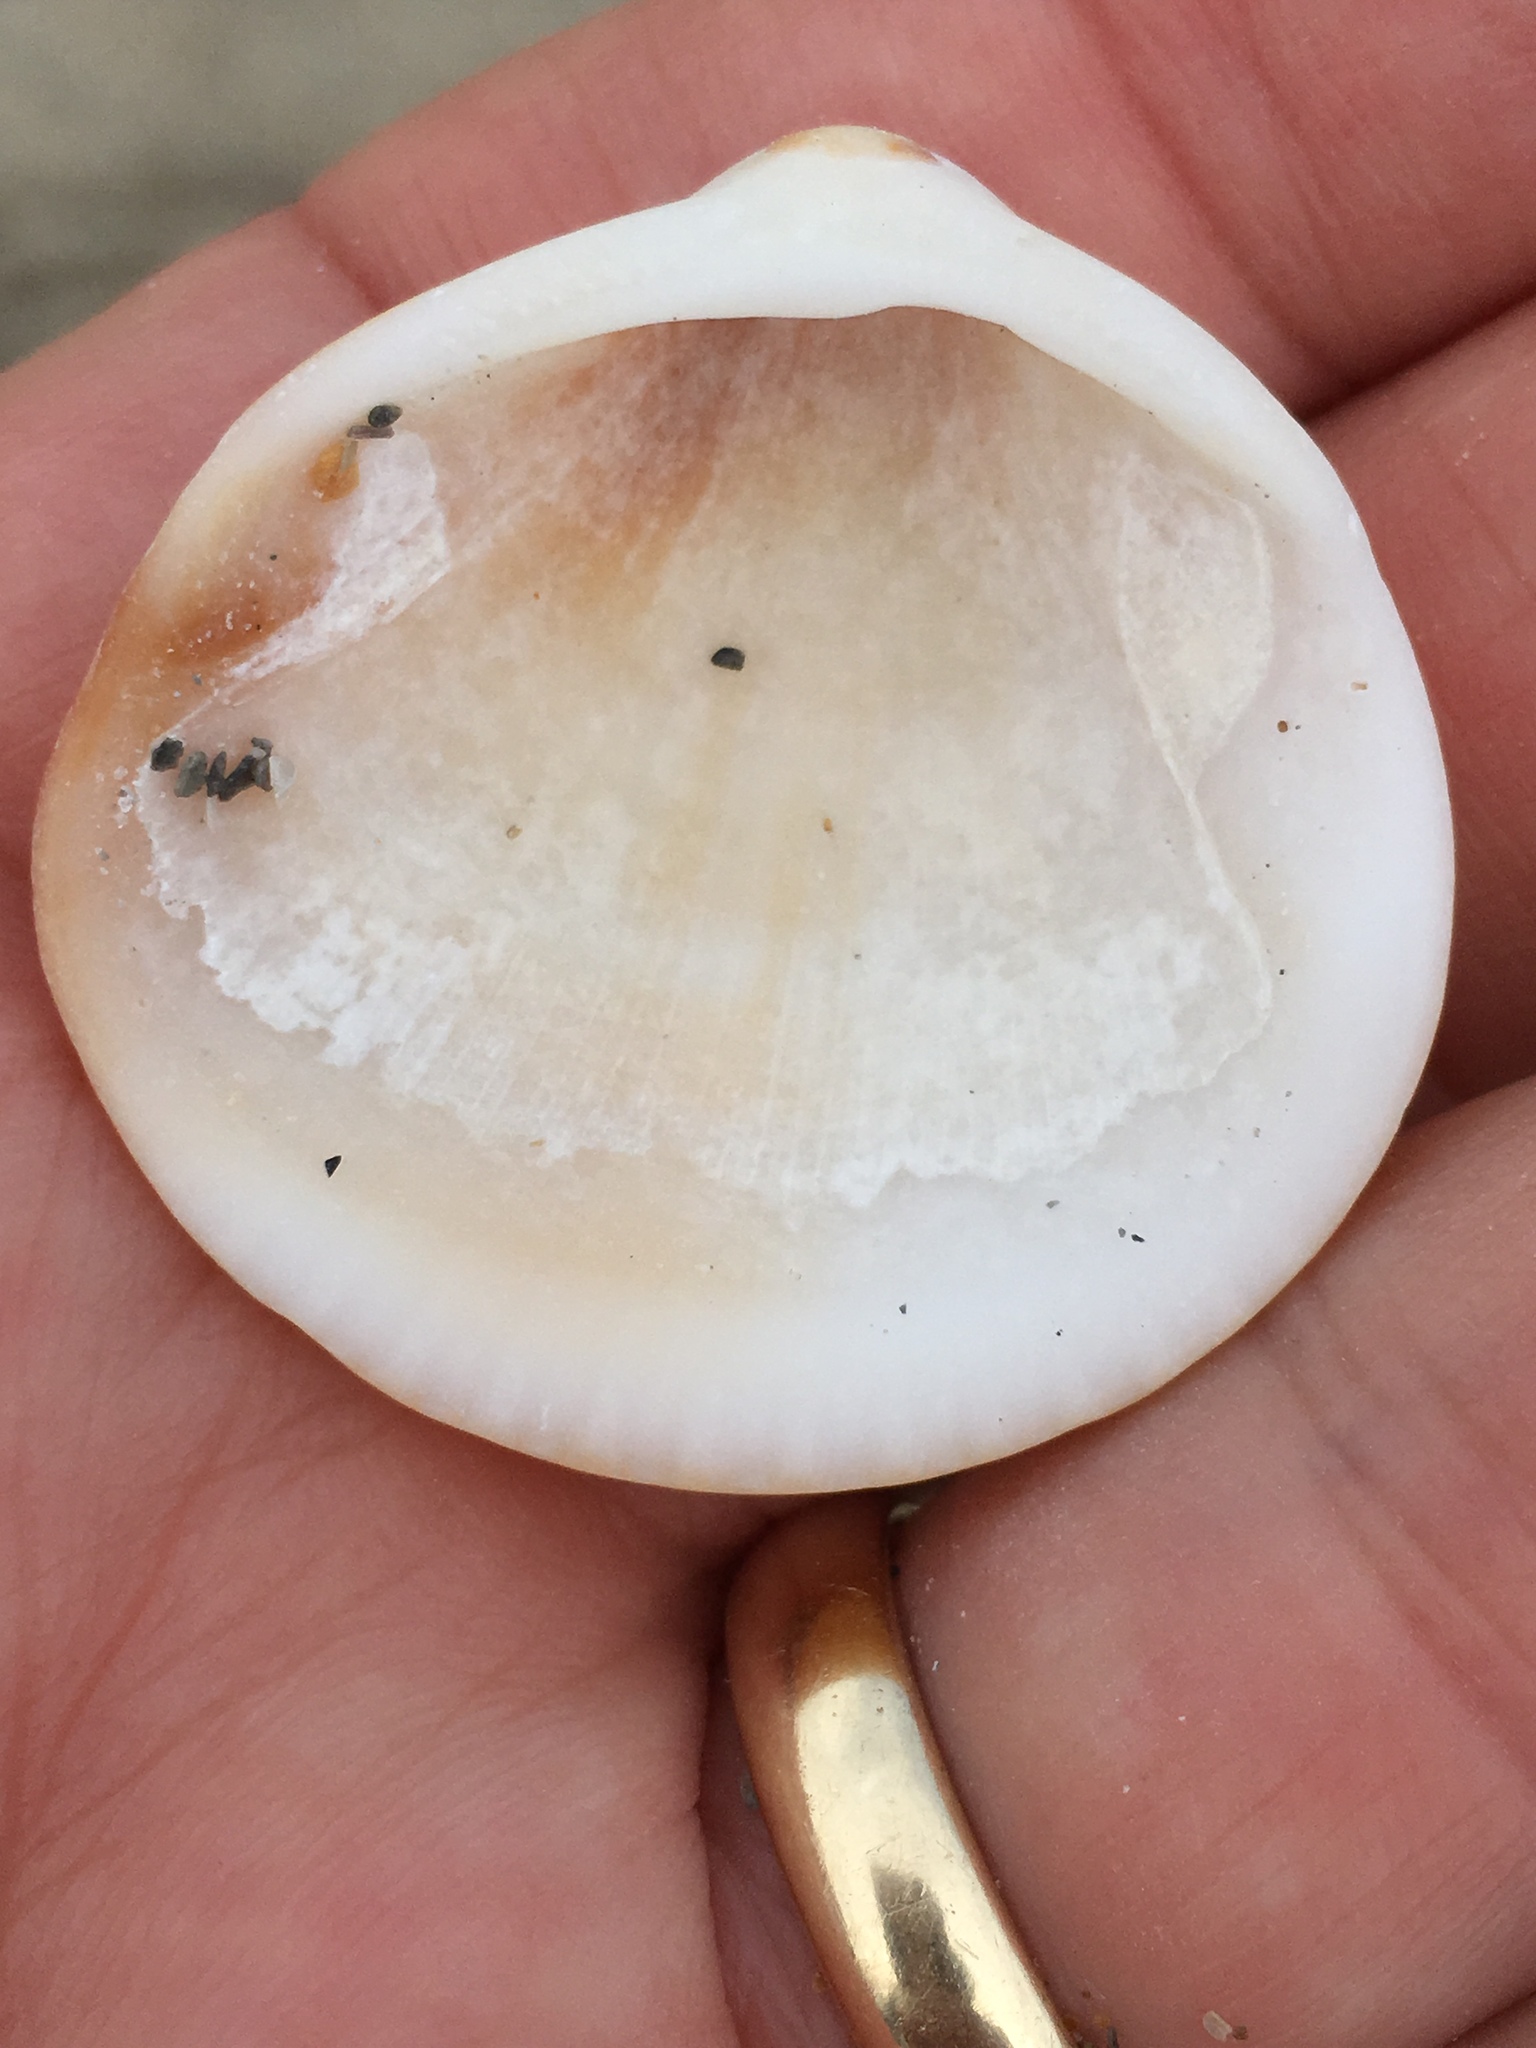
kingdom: Animalia
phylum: Mollusca
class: Bivalvia
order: Arcida
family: Glycymerididae
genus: Glycymeris
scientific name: Glycymeris spectralis
